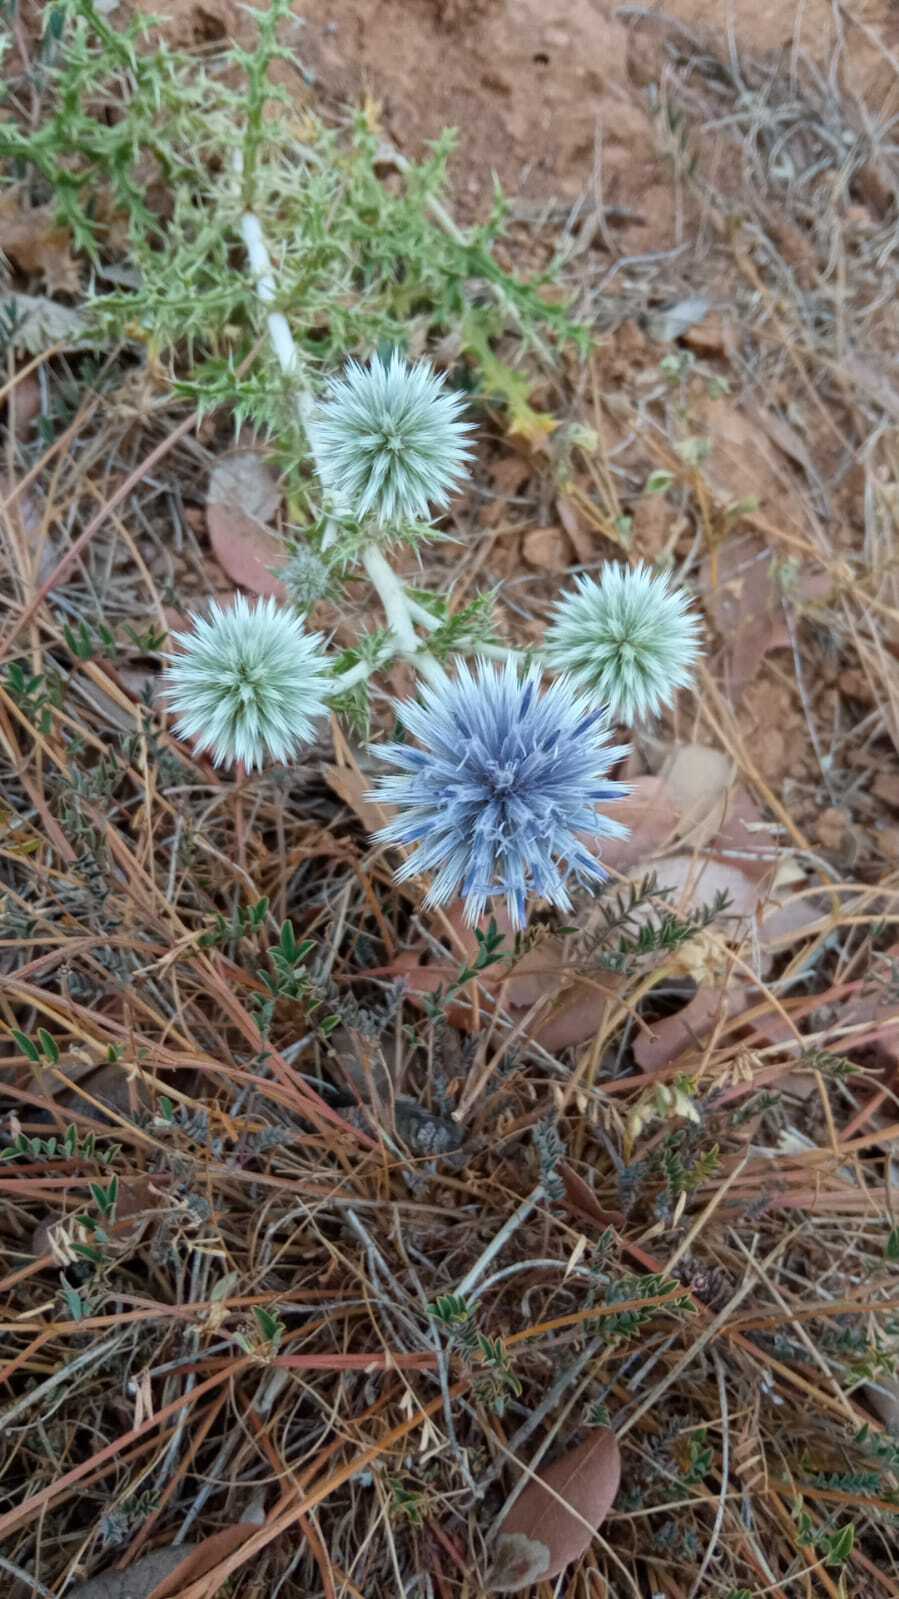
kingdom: Plantae
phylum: Tracheophyta
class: Magnoliopsida
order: Asterales
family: Asteraceae
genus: Echinops
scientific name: Echinops ritro
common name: Globe thistle
